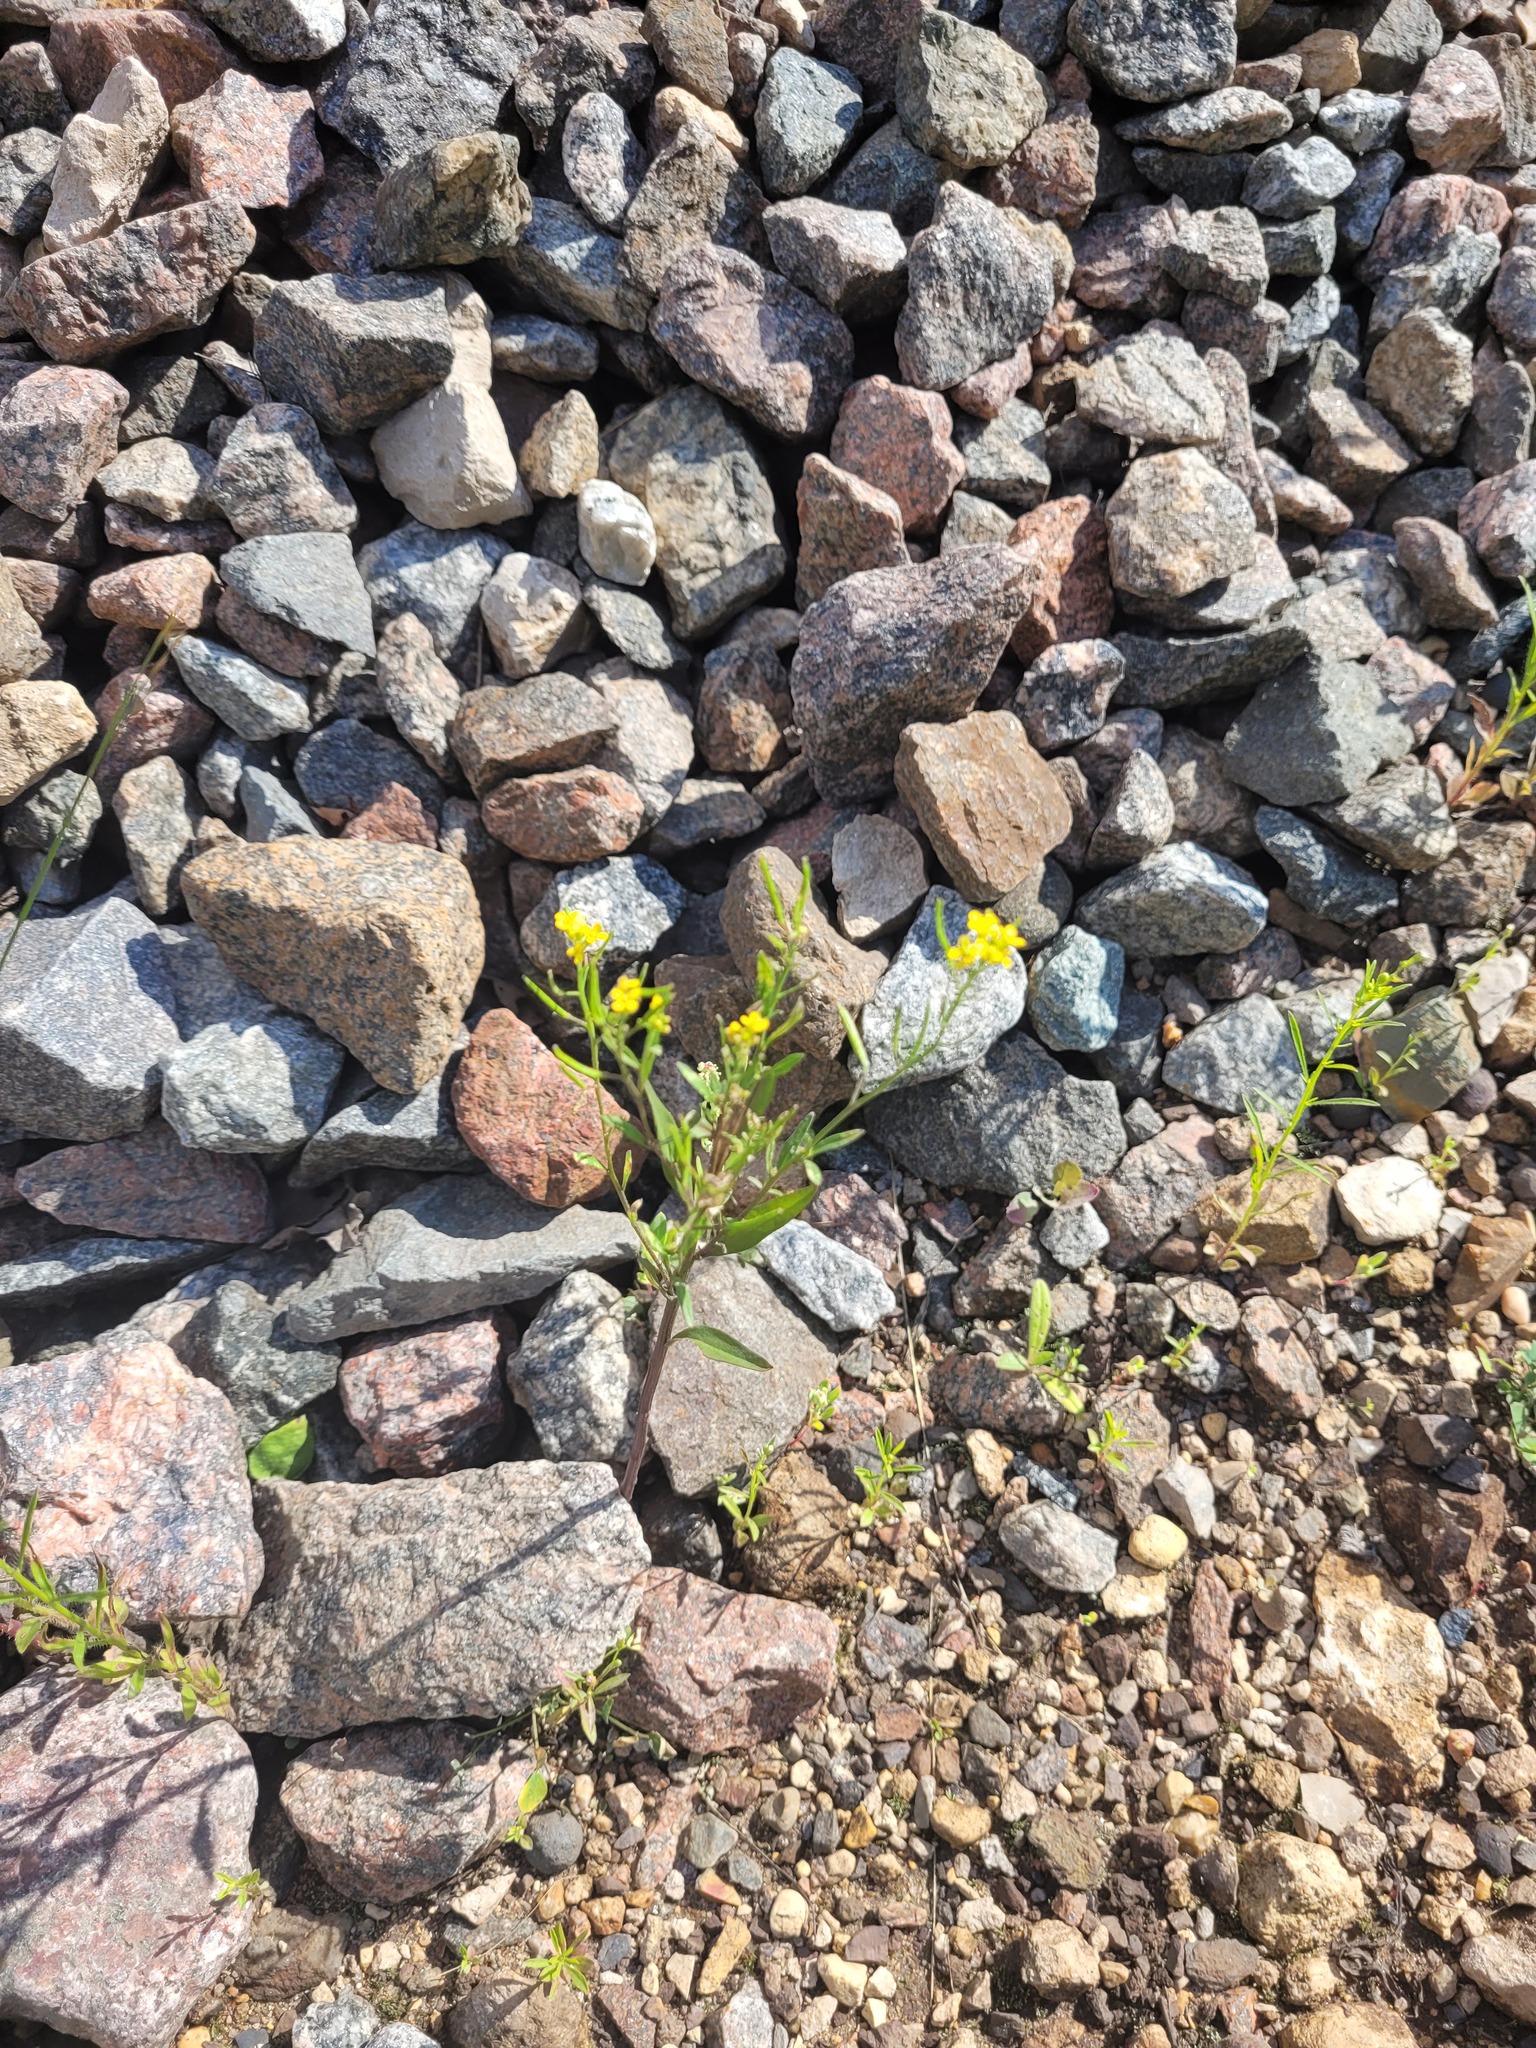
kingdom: Plantae
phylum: Tracheophyta
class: Magnoliopsida
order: Brassicales
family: Brassicaceae
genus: Erysimum
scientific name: Erysimum cheiranthoides
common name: Treacle mustard
